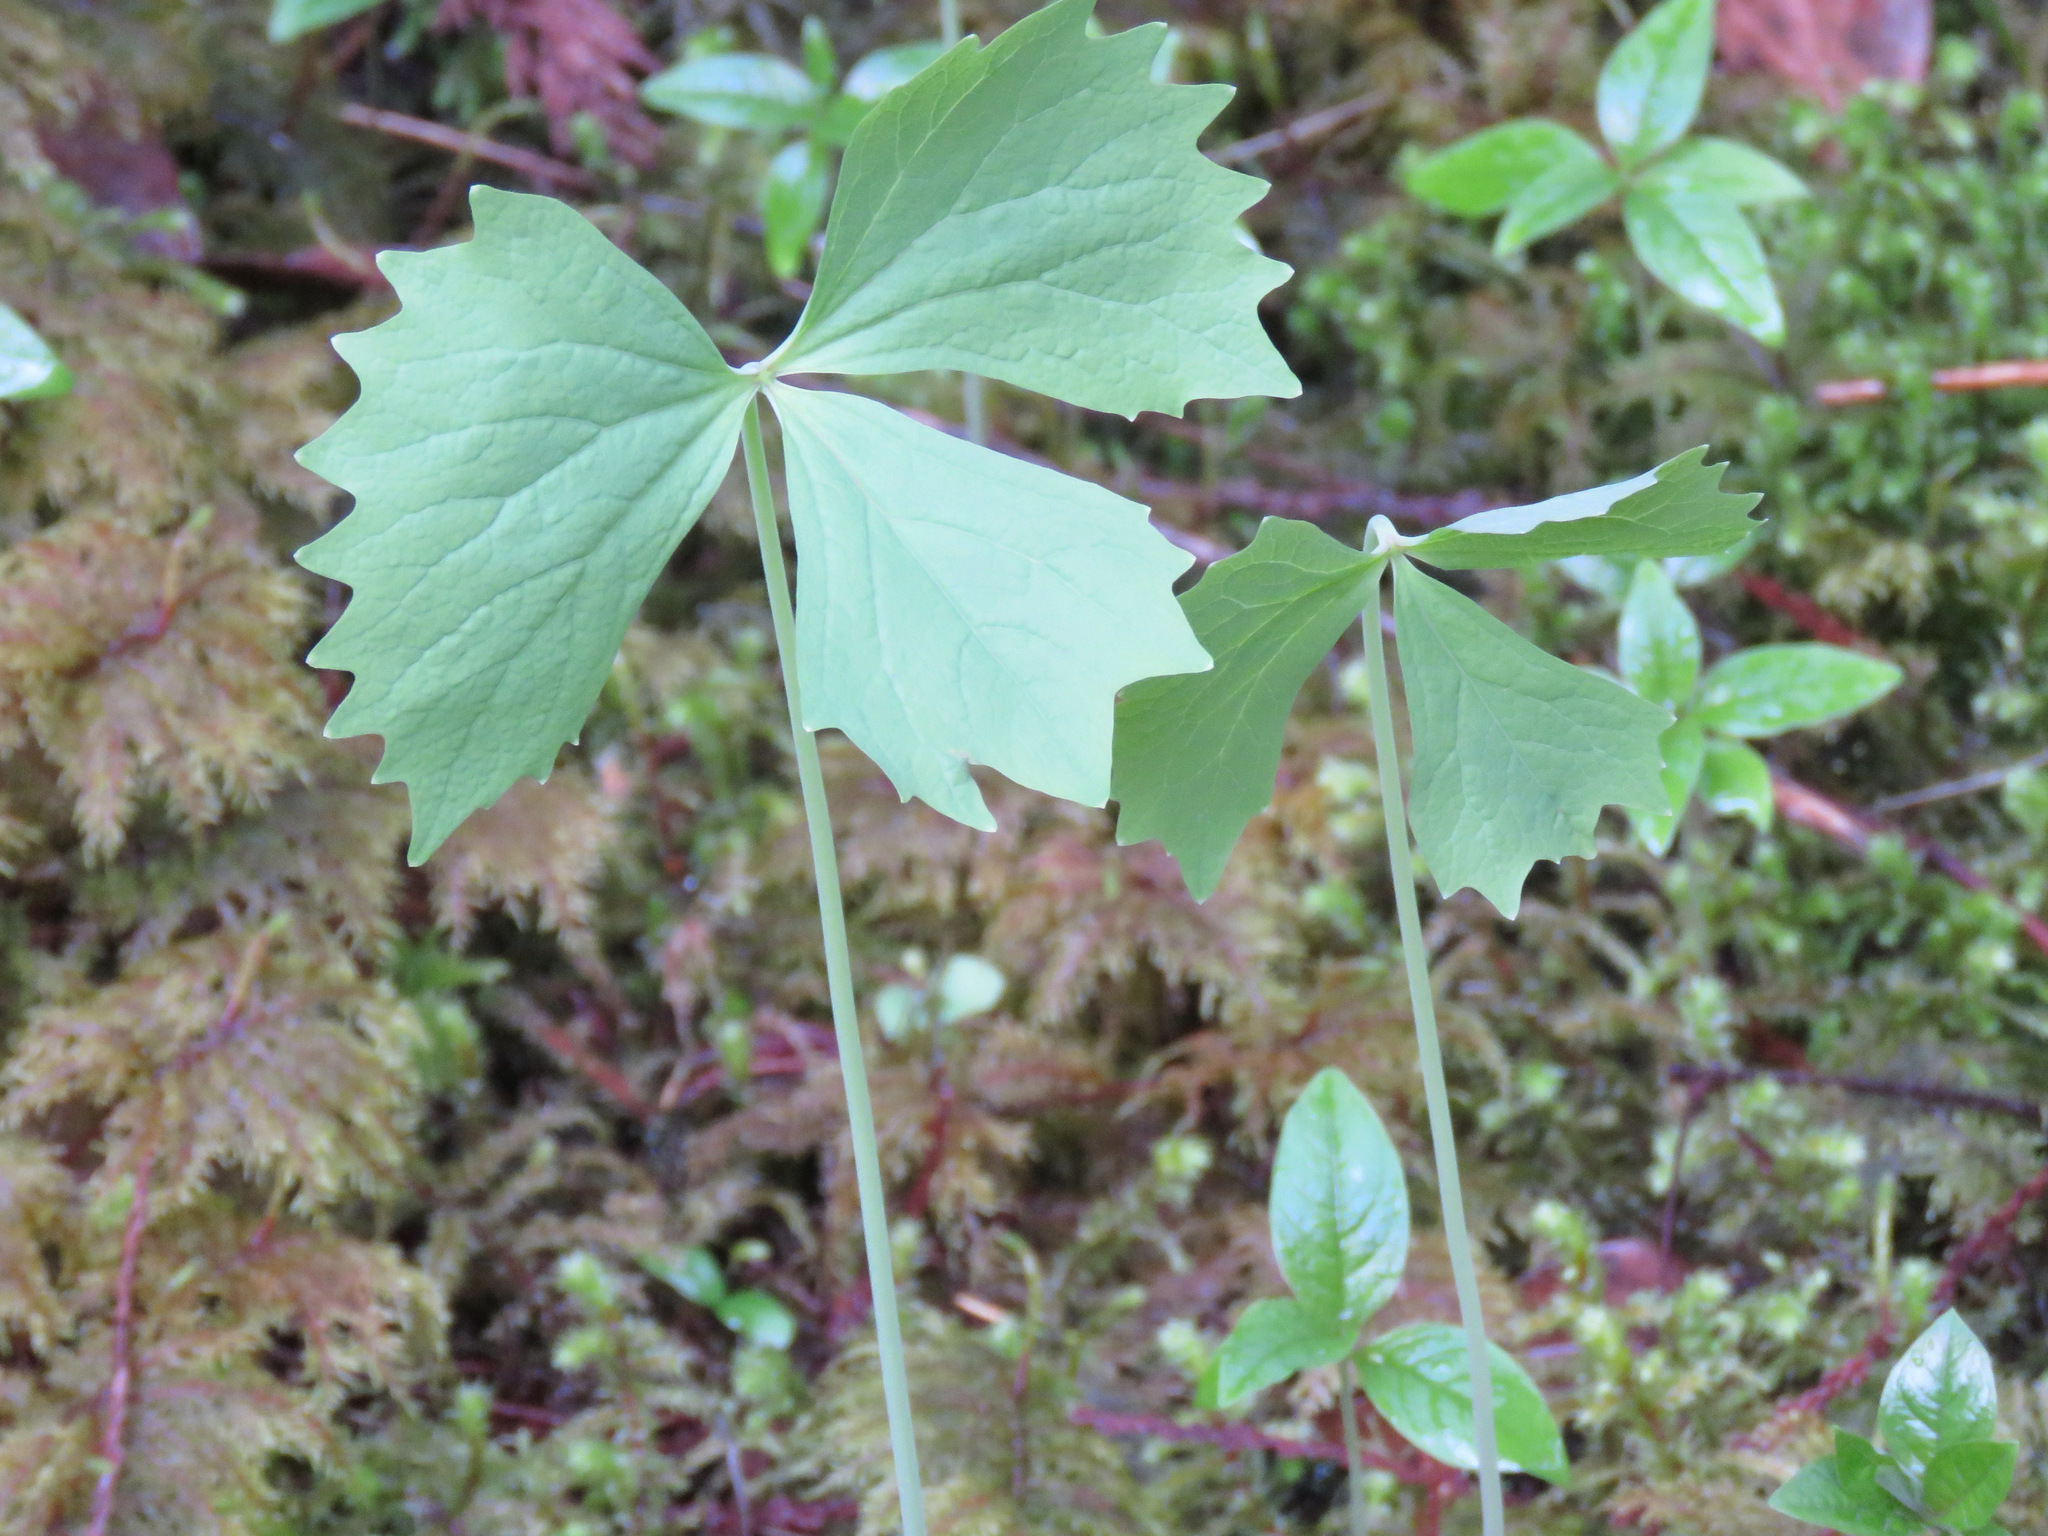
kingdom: Plantae
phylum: Tracheophyta
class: Magnoliopsida
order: Ranunculales
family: Berberidaceae
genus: Achlys
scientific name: Achlys triphylla
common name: Vanilla-leaf
